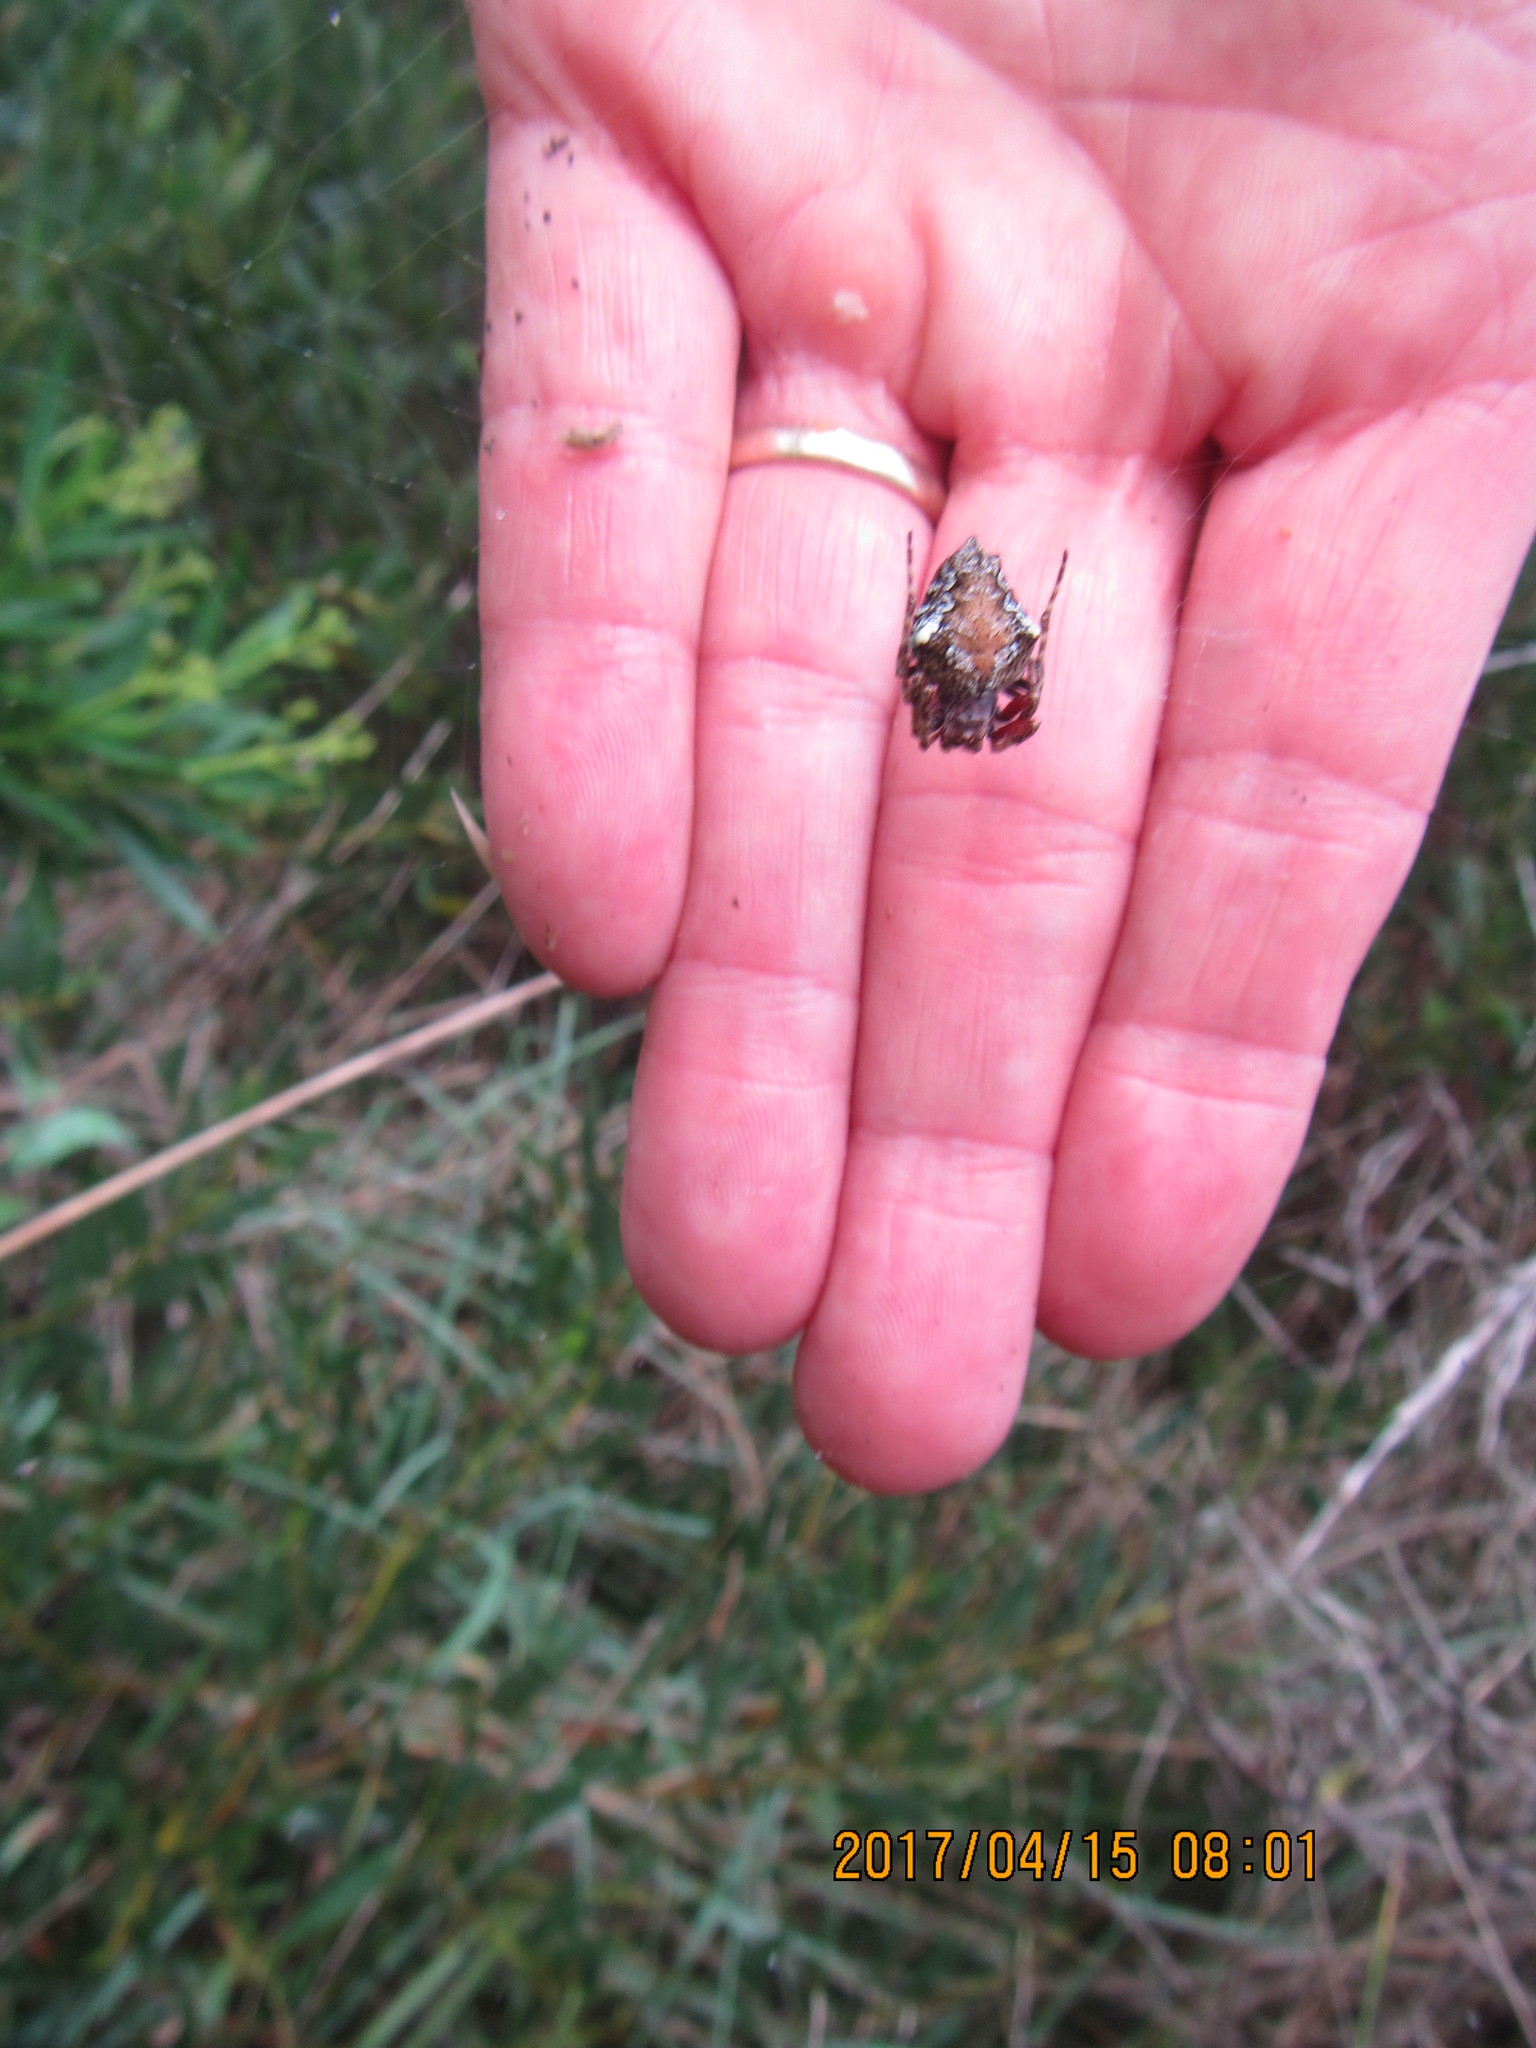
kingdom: Animalia
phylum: Arthropoda
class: Arachnida
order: Araneae
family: Araneidae
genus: Eriophora
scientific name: Eriophora pustulosa
